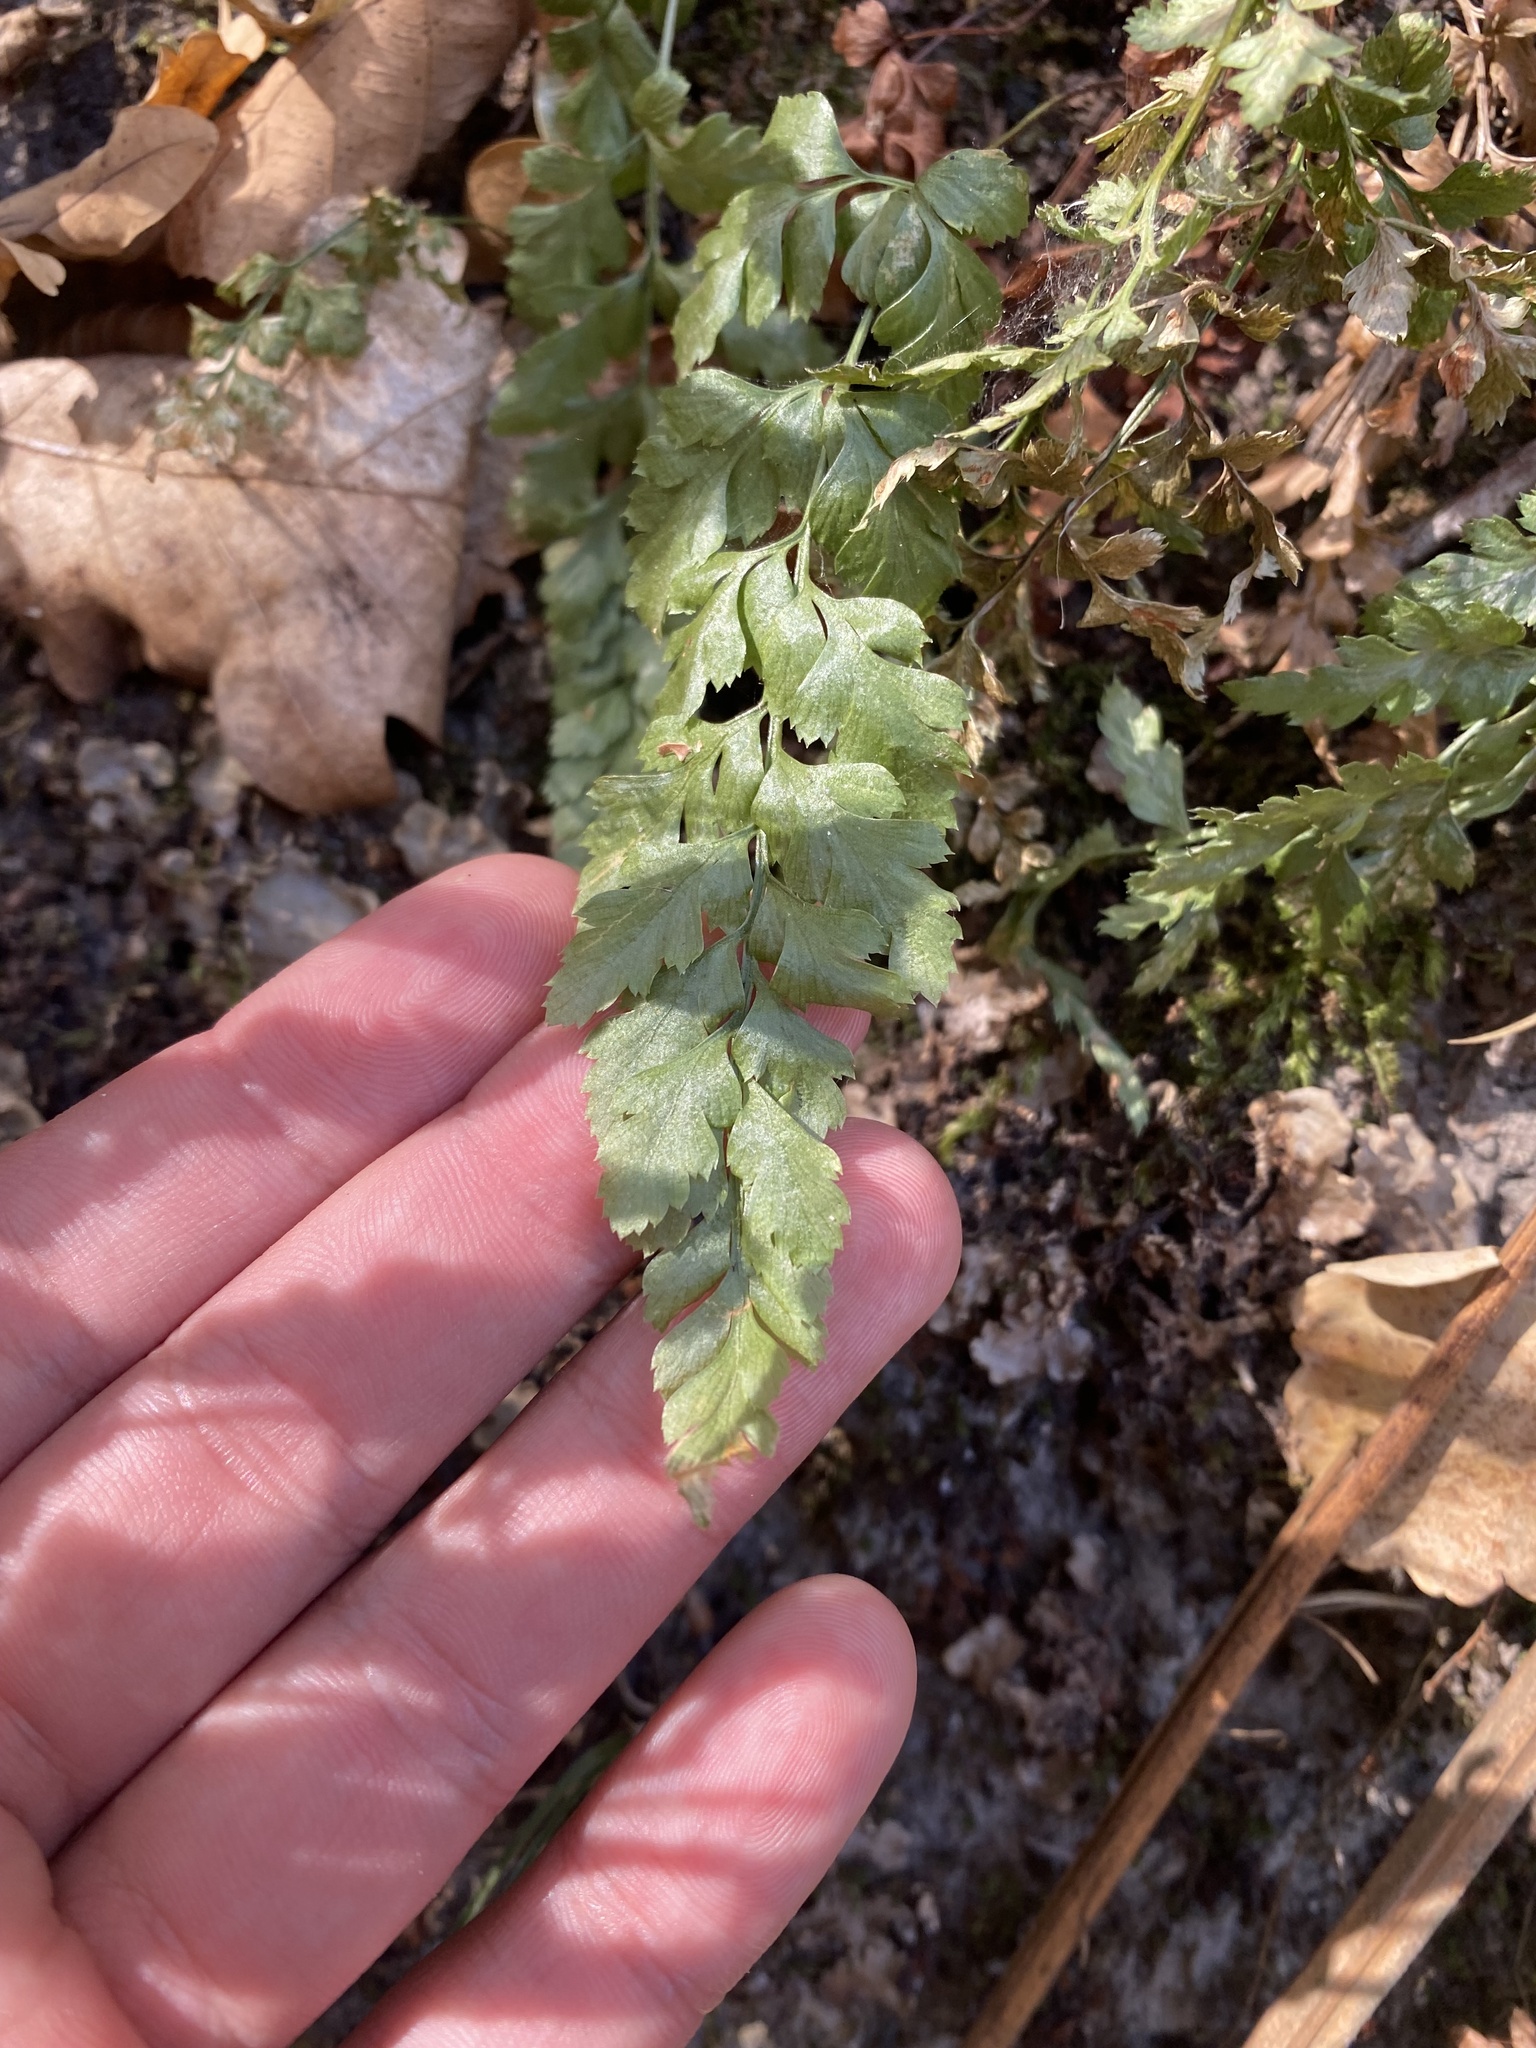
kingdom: Plantae
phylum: Tracheophyta
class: Polypodiopsida
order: Polypodiales
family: Aspleniaceae
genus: Asplenium
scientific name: Asplenium adiantum-nigrum
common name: Black spleenwort
